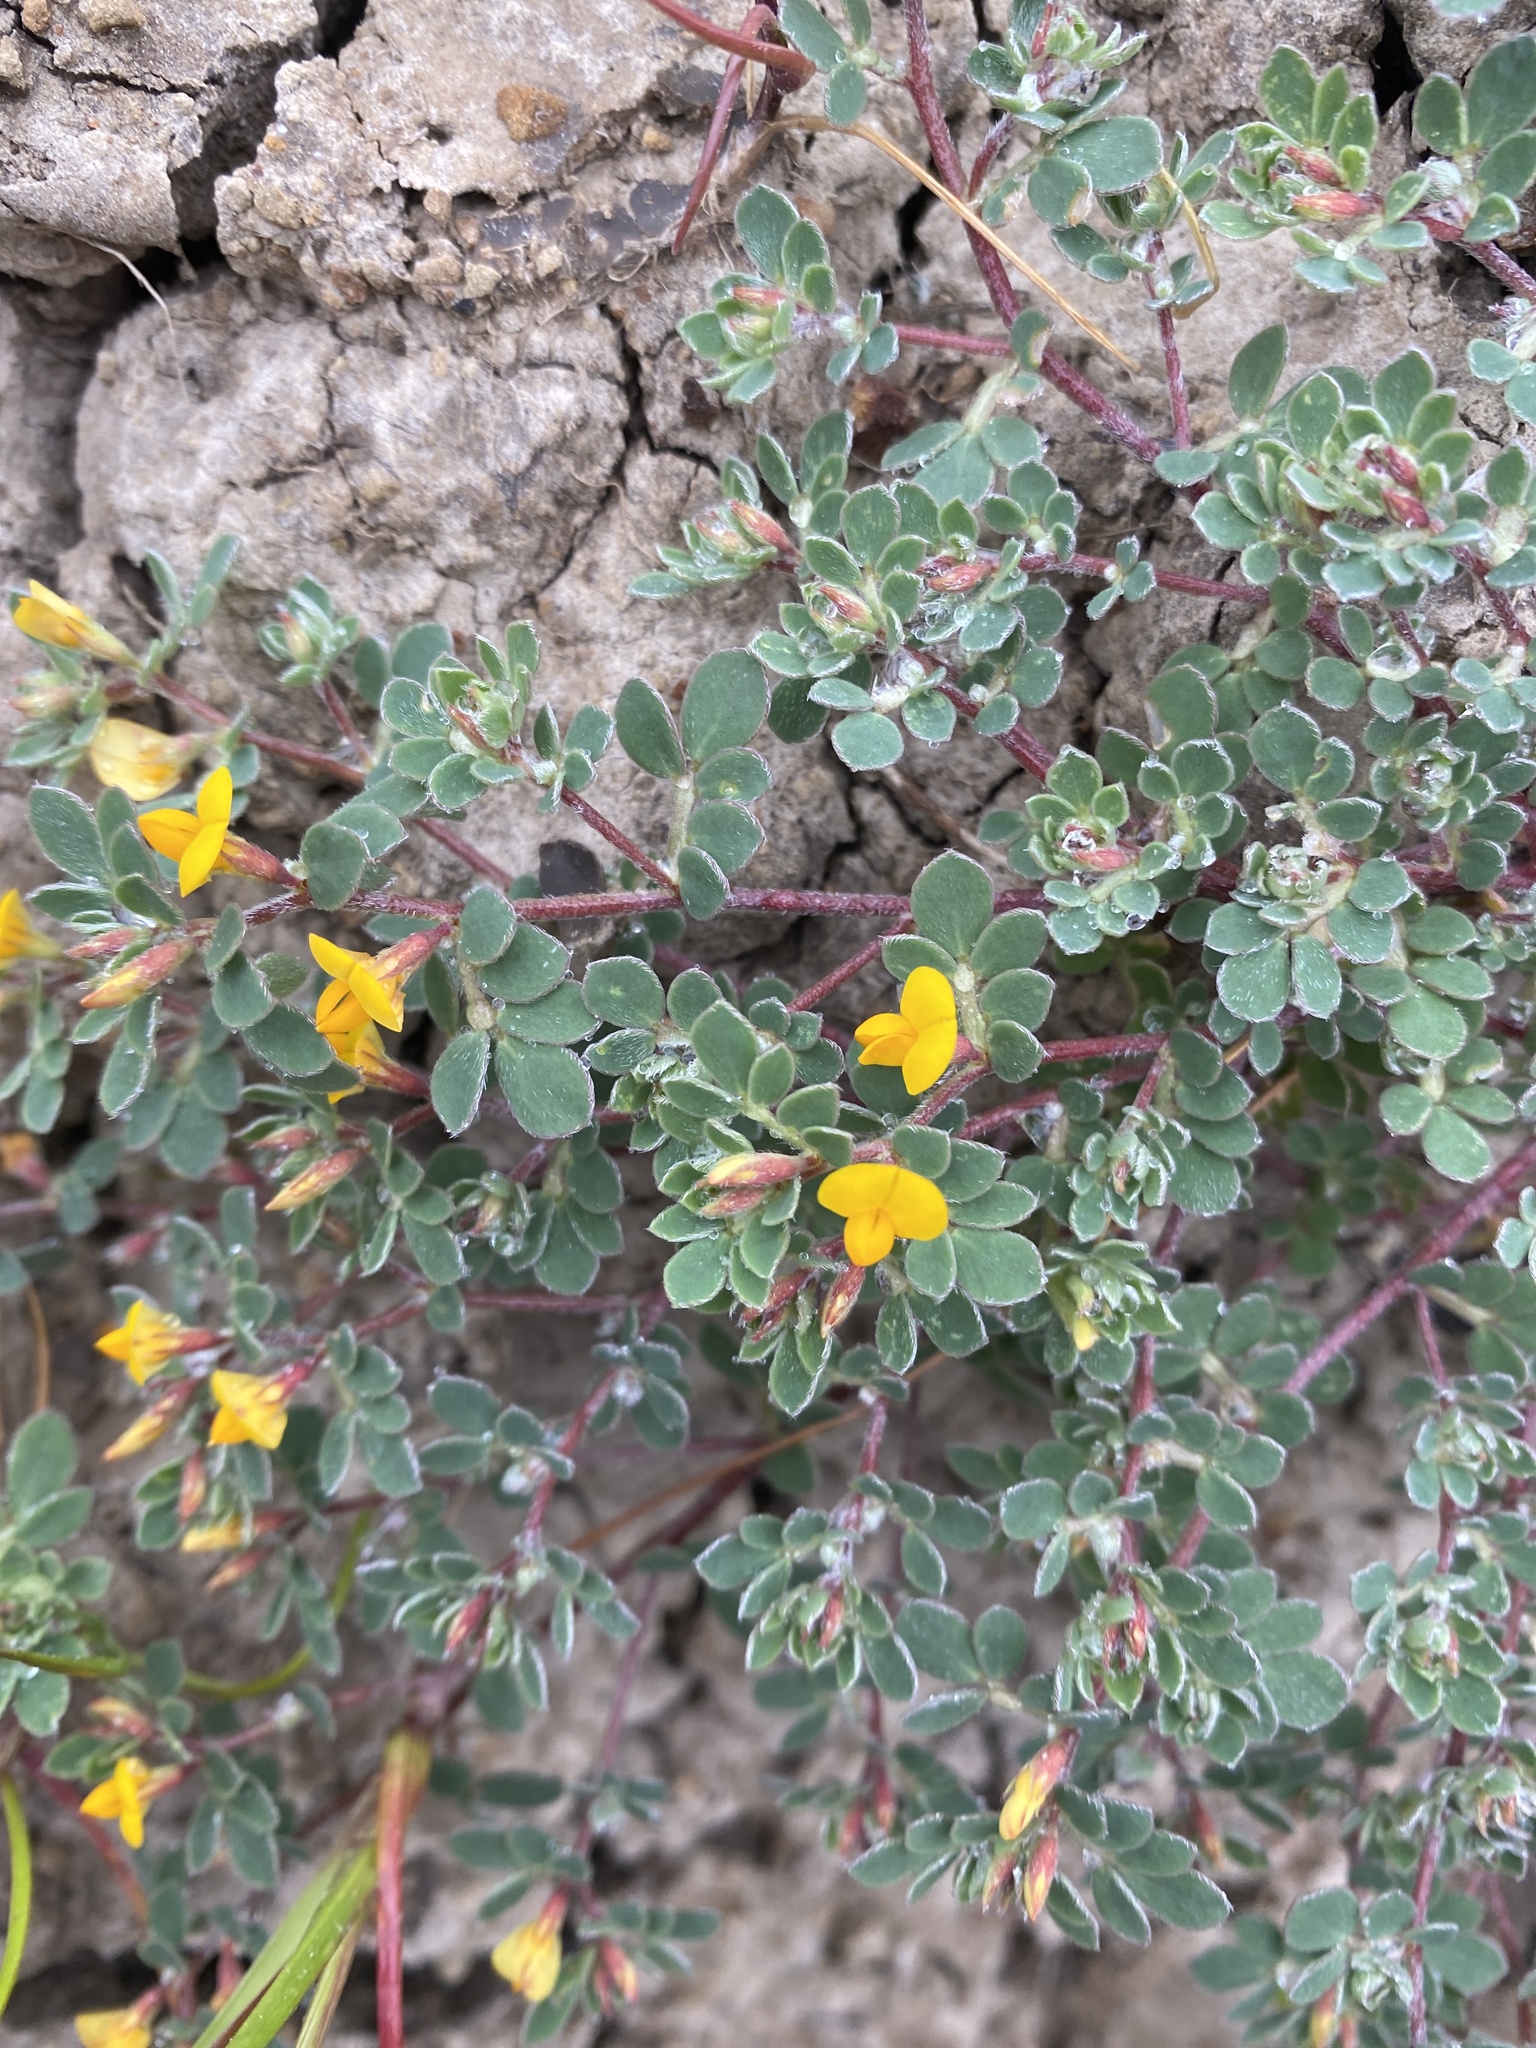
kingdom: Plantae
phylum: Tracheophyta
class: Magnoliopsida
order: Fabales
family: Fabaceae
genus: Acmispon
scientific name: Acmispon wrangelianus
